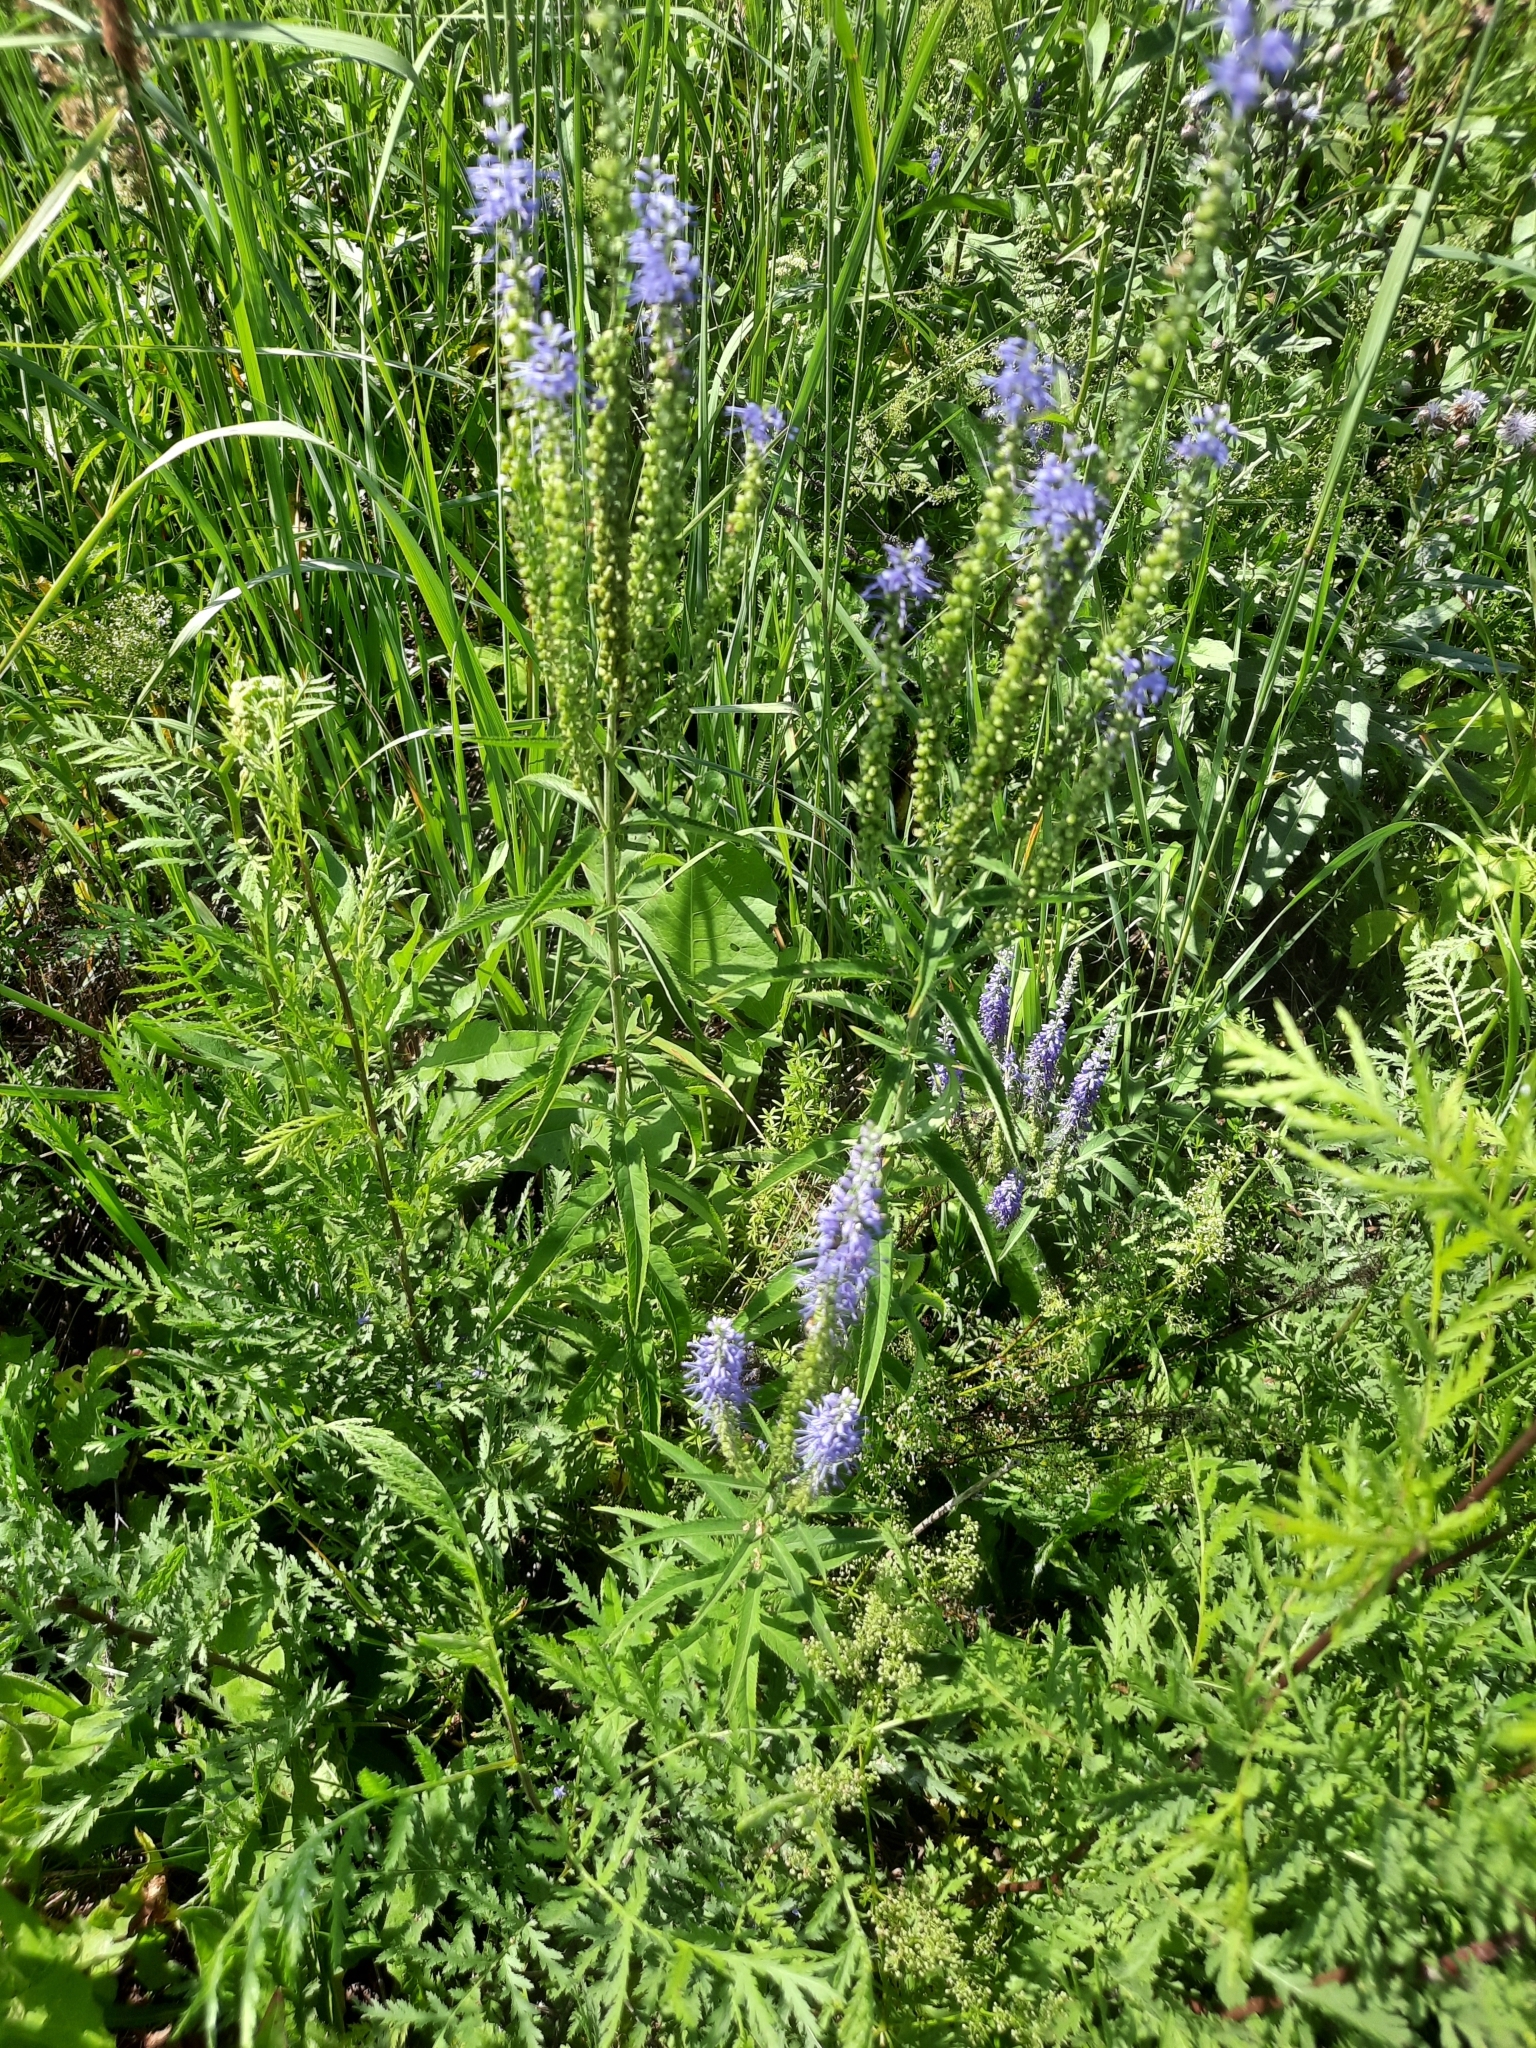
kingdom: Plantae
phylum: Tracheophyta
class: Magnoliopsida
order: Lamiales
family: Plantaginaceae
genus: Veronica
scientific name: Veronica longifolia
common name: Garden speedwell
